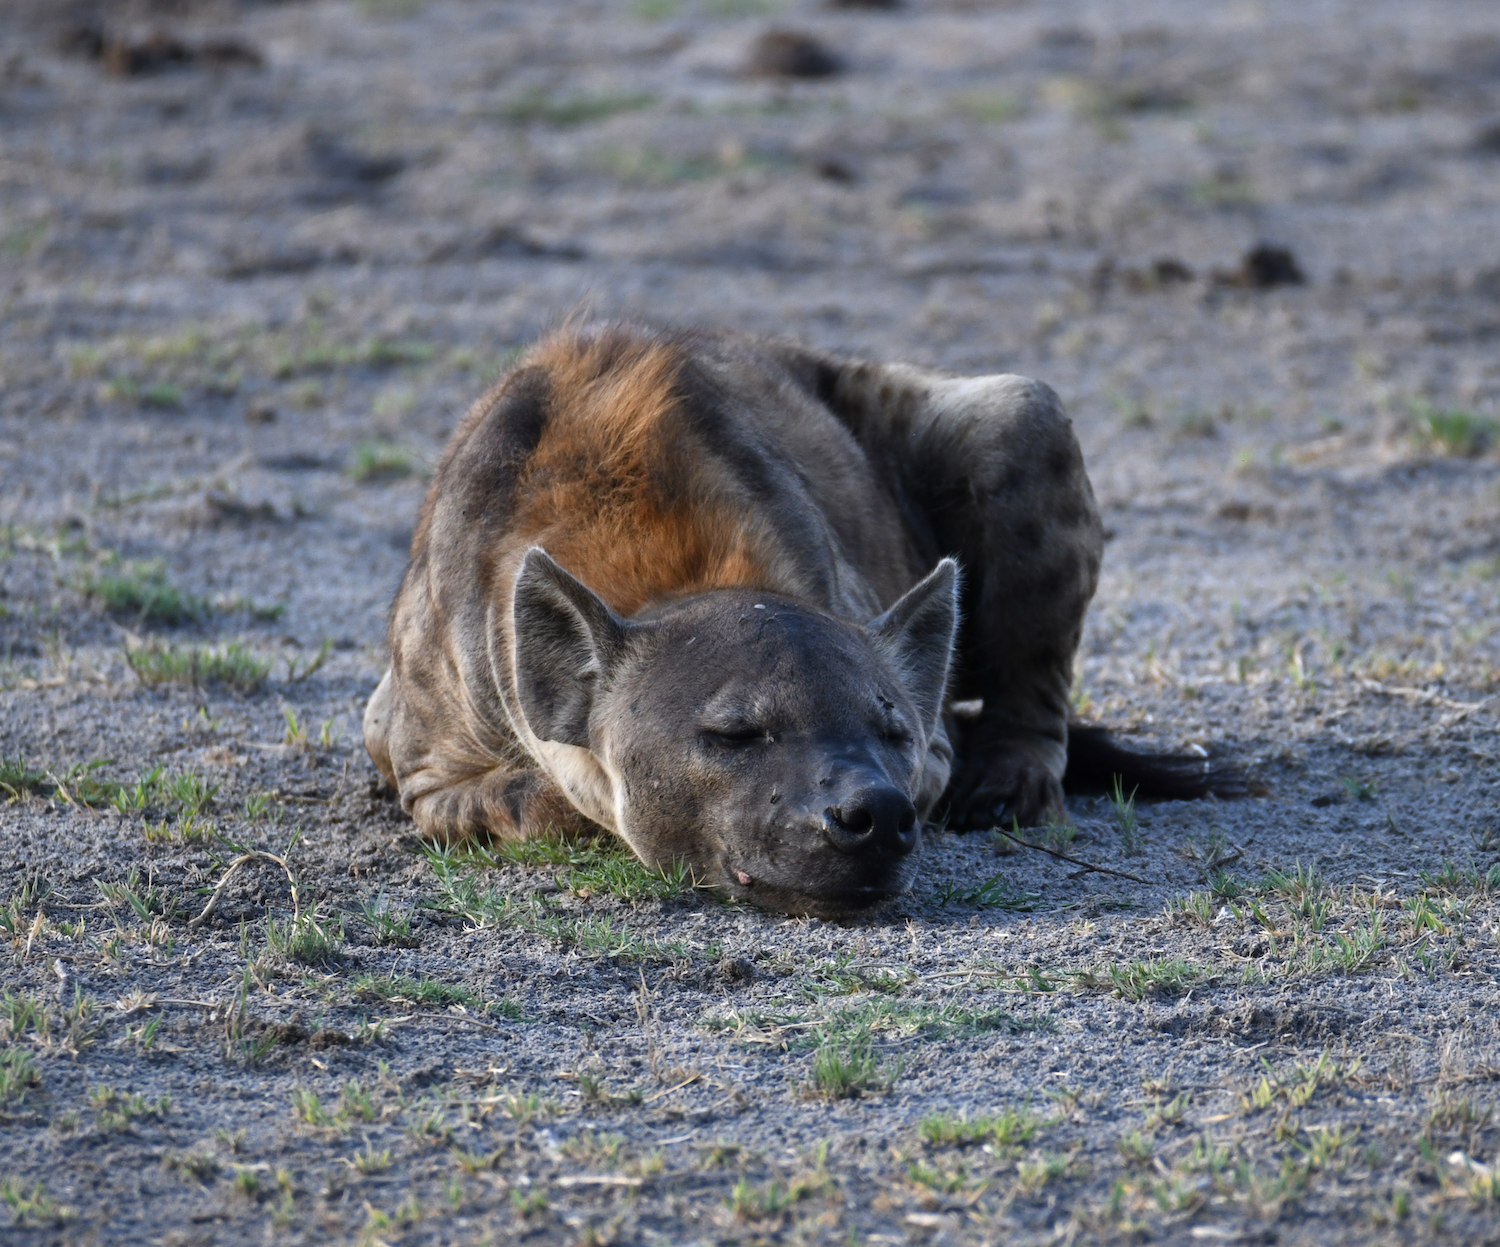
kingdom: Animalia
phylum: Chordata
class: Mammalia
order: Carnivora
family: Hyaenidae
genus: Crocuta
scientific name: Crocuta crocuta
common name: Spotted hyaena
